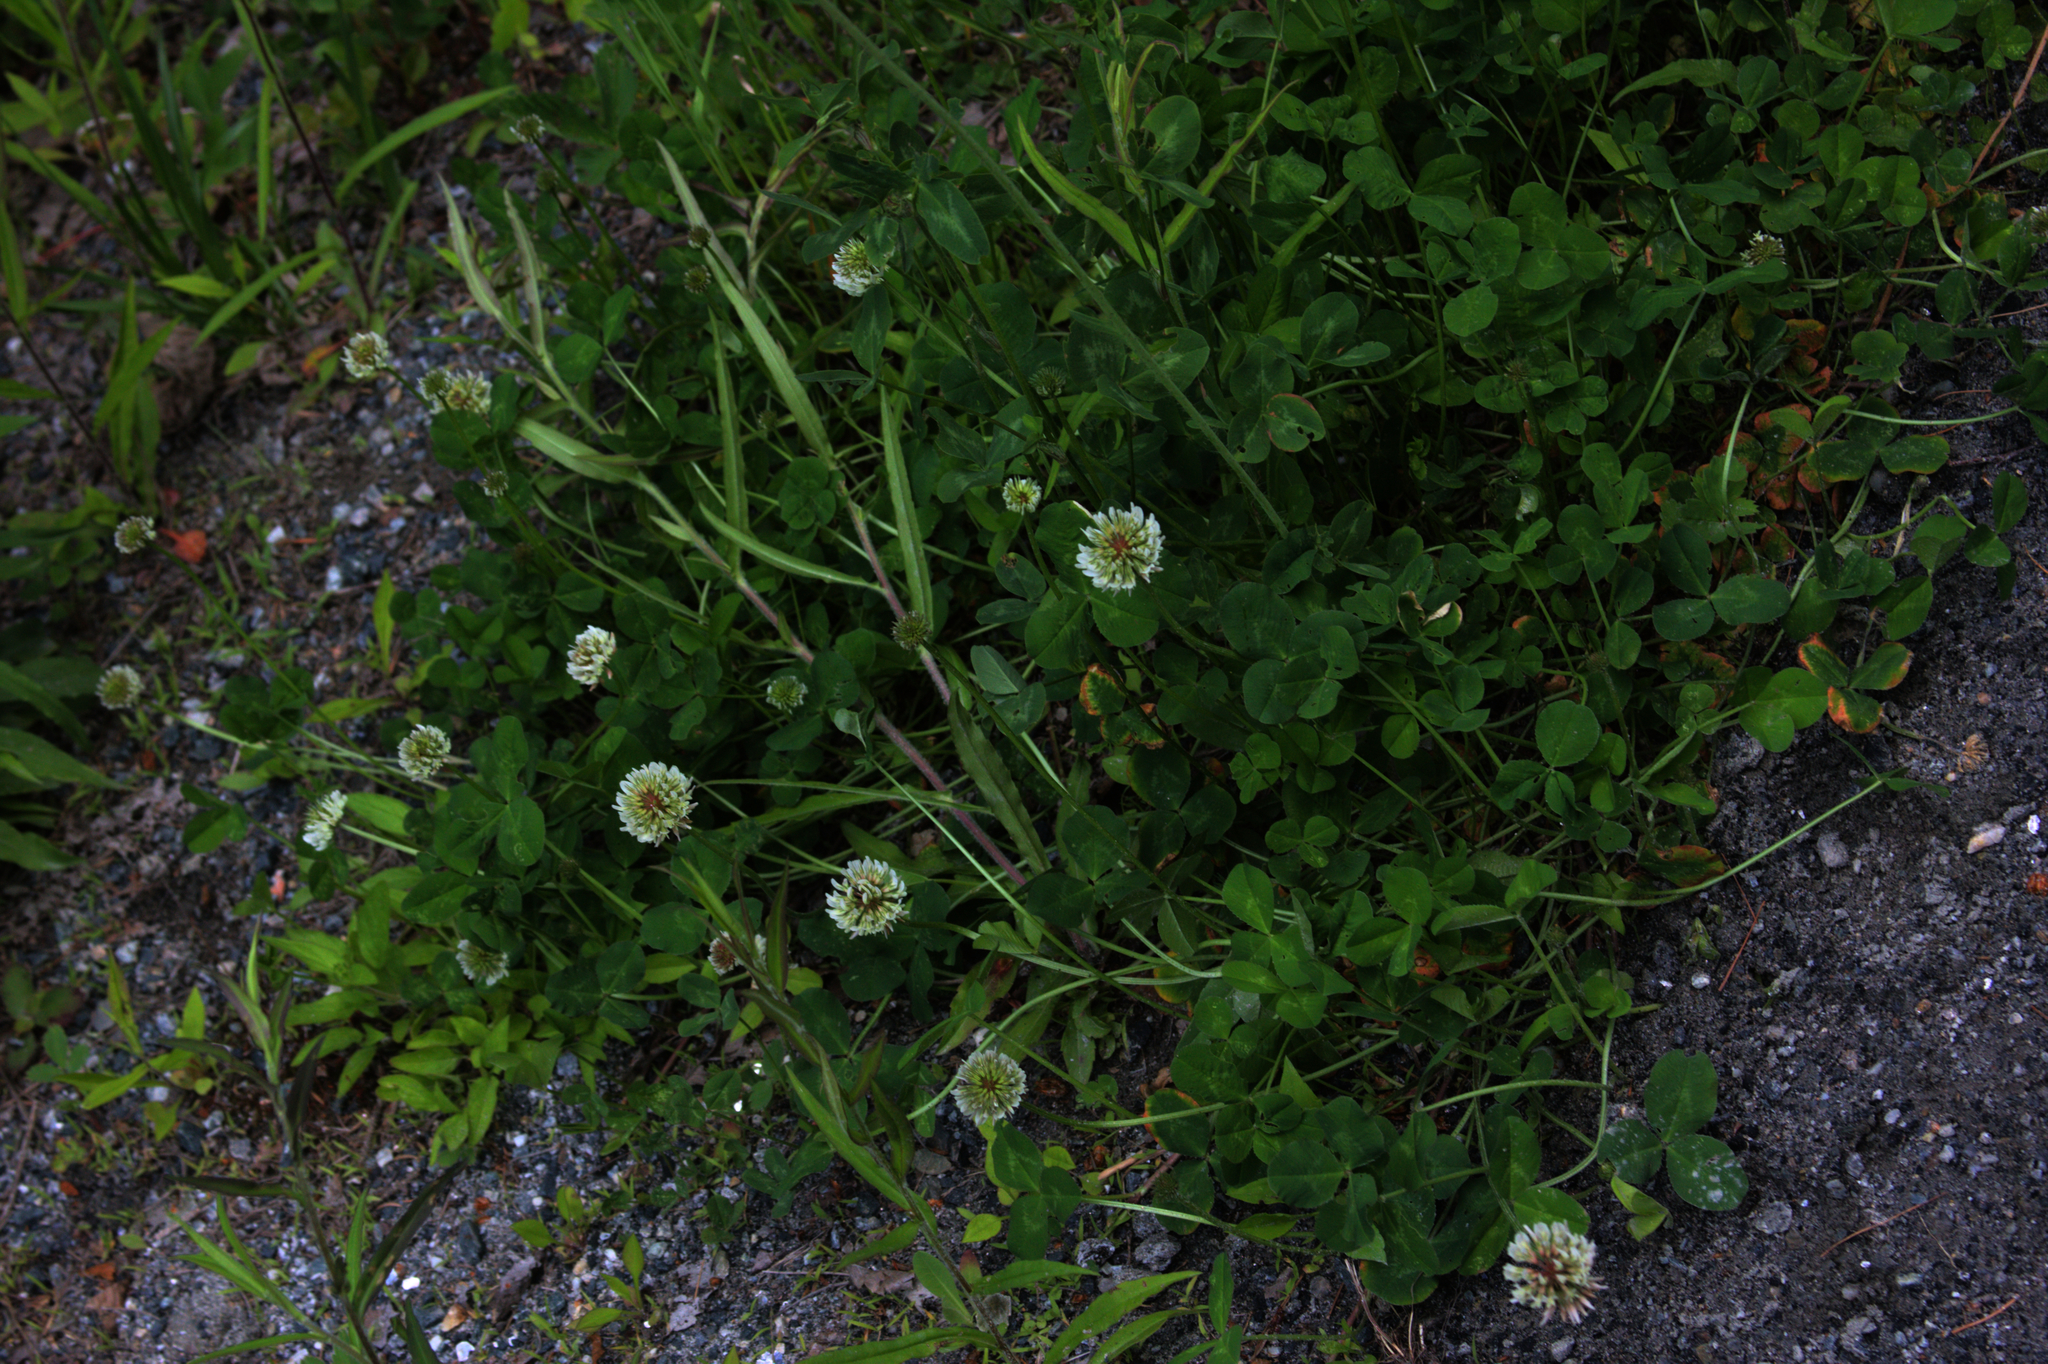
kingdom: Plantae
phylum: Tracheophyta
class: Magnoliopsida
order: Fabales
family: Fabaceae
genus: Trifolium
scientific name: Trifolium repens
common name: White clover
